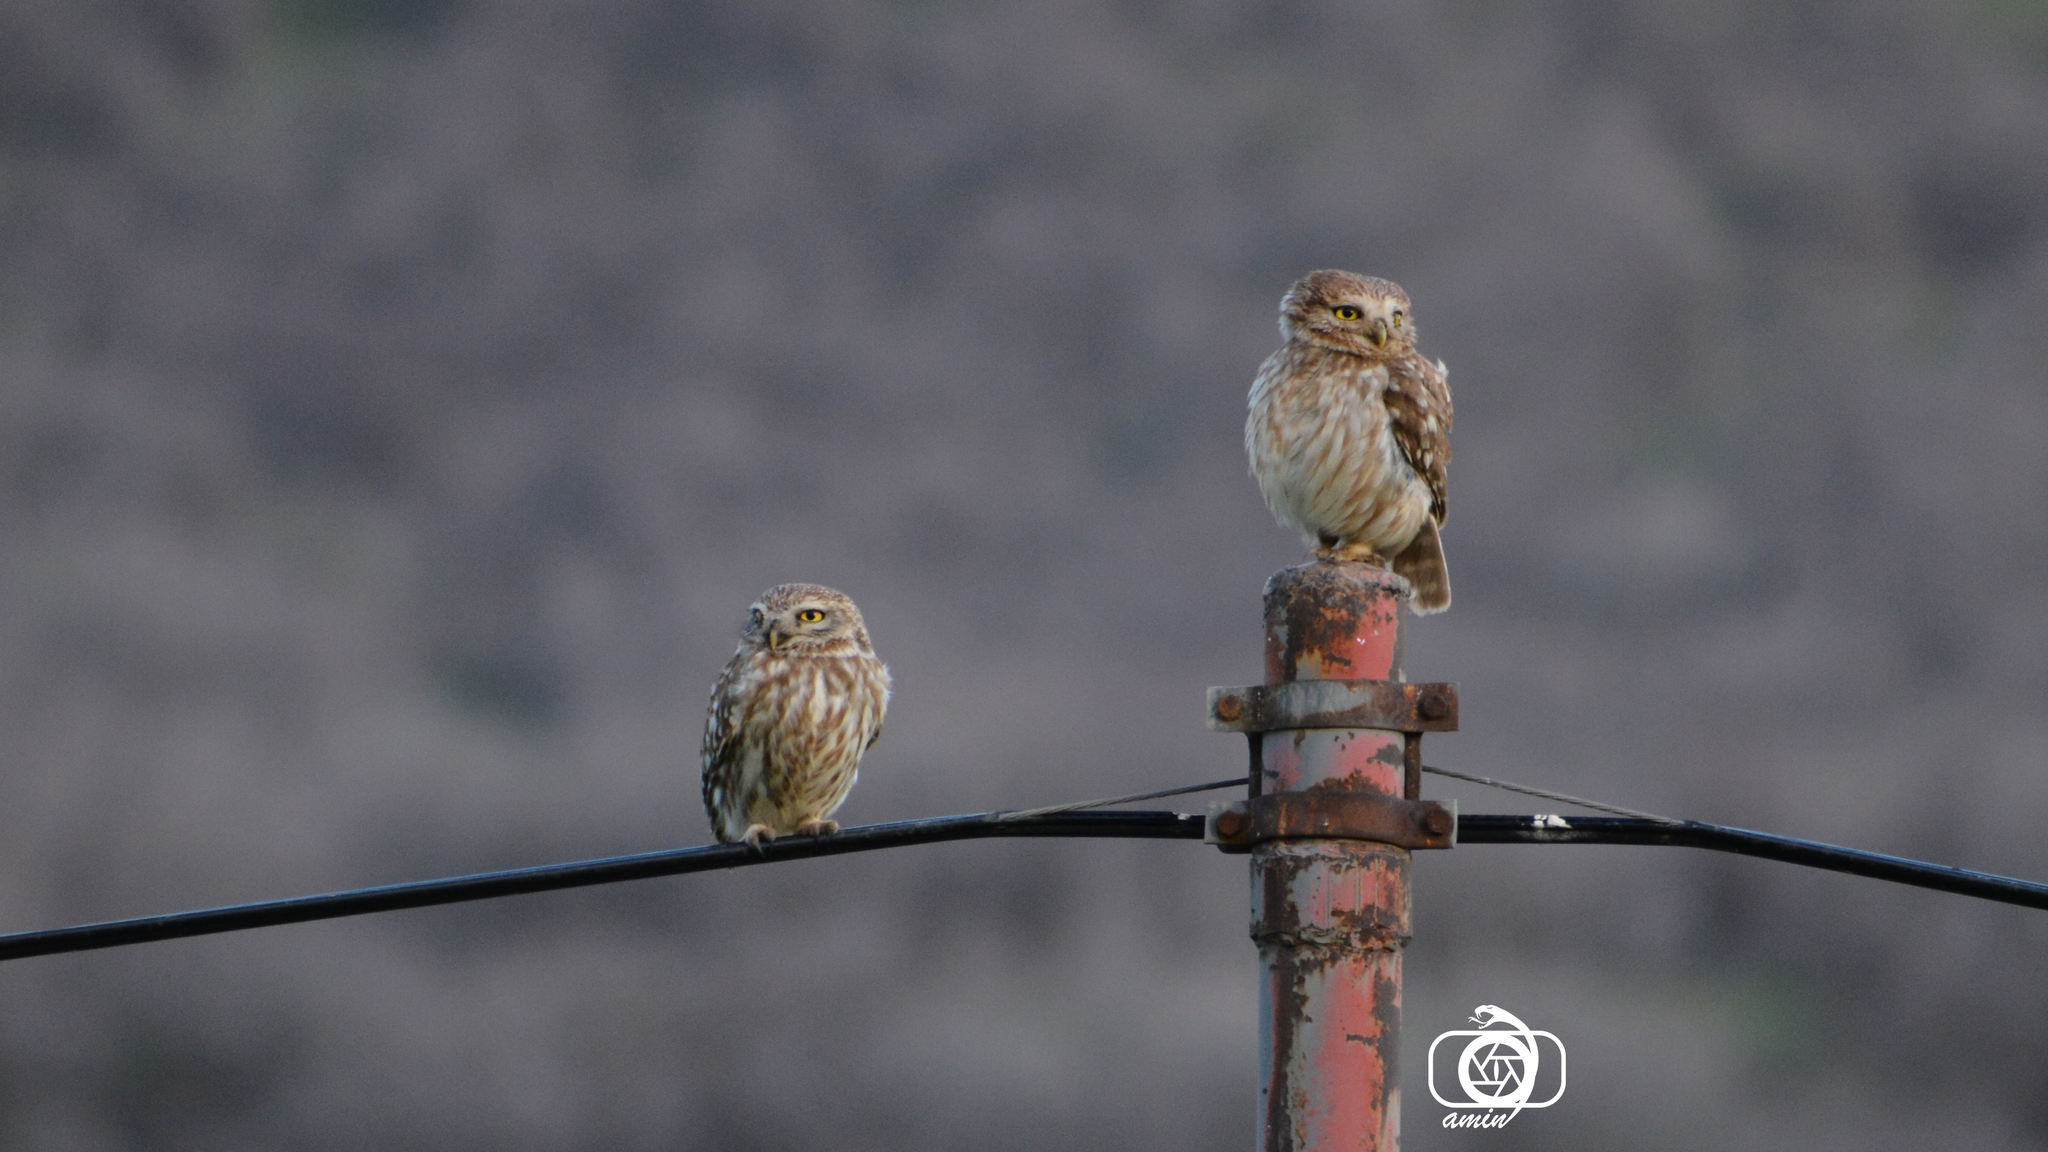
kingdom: Animalia
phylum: Chordata
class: Aves
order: Strigiformes
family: Strigidae
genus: Athene
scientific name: Athene noctua
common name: Little owl
